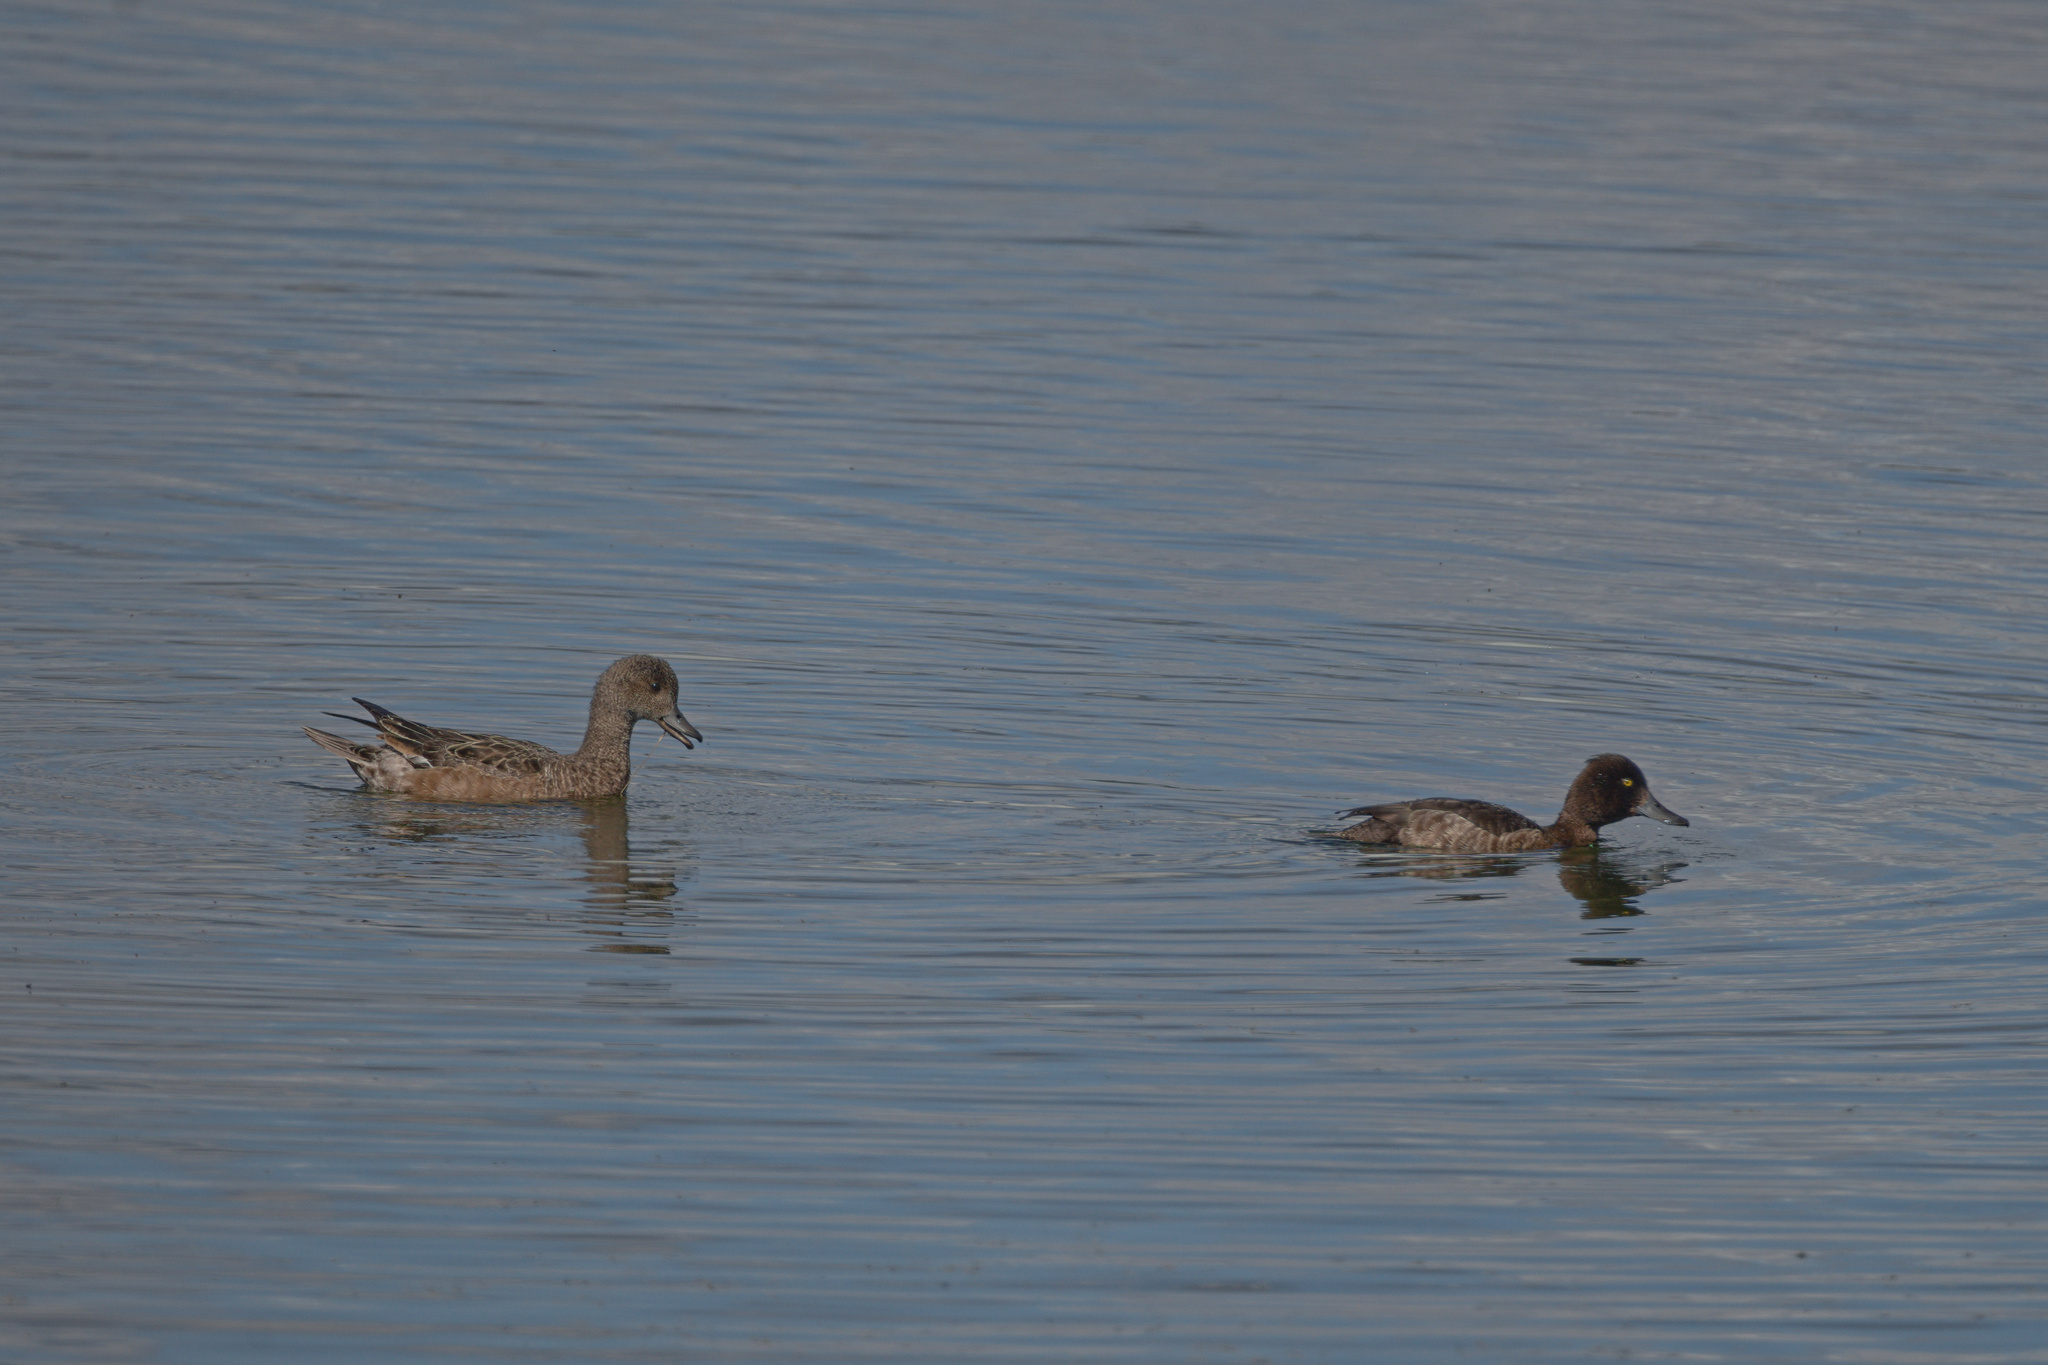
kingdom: Animalia
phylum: Chordata
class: Aves
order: Anseriformes
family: Anatidae
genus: Aythya
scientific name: Aythya fuligula
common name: Tufted duck
